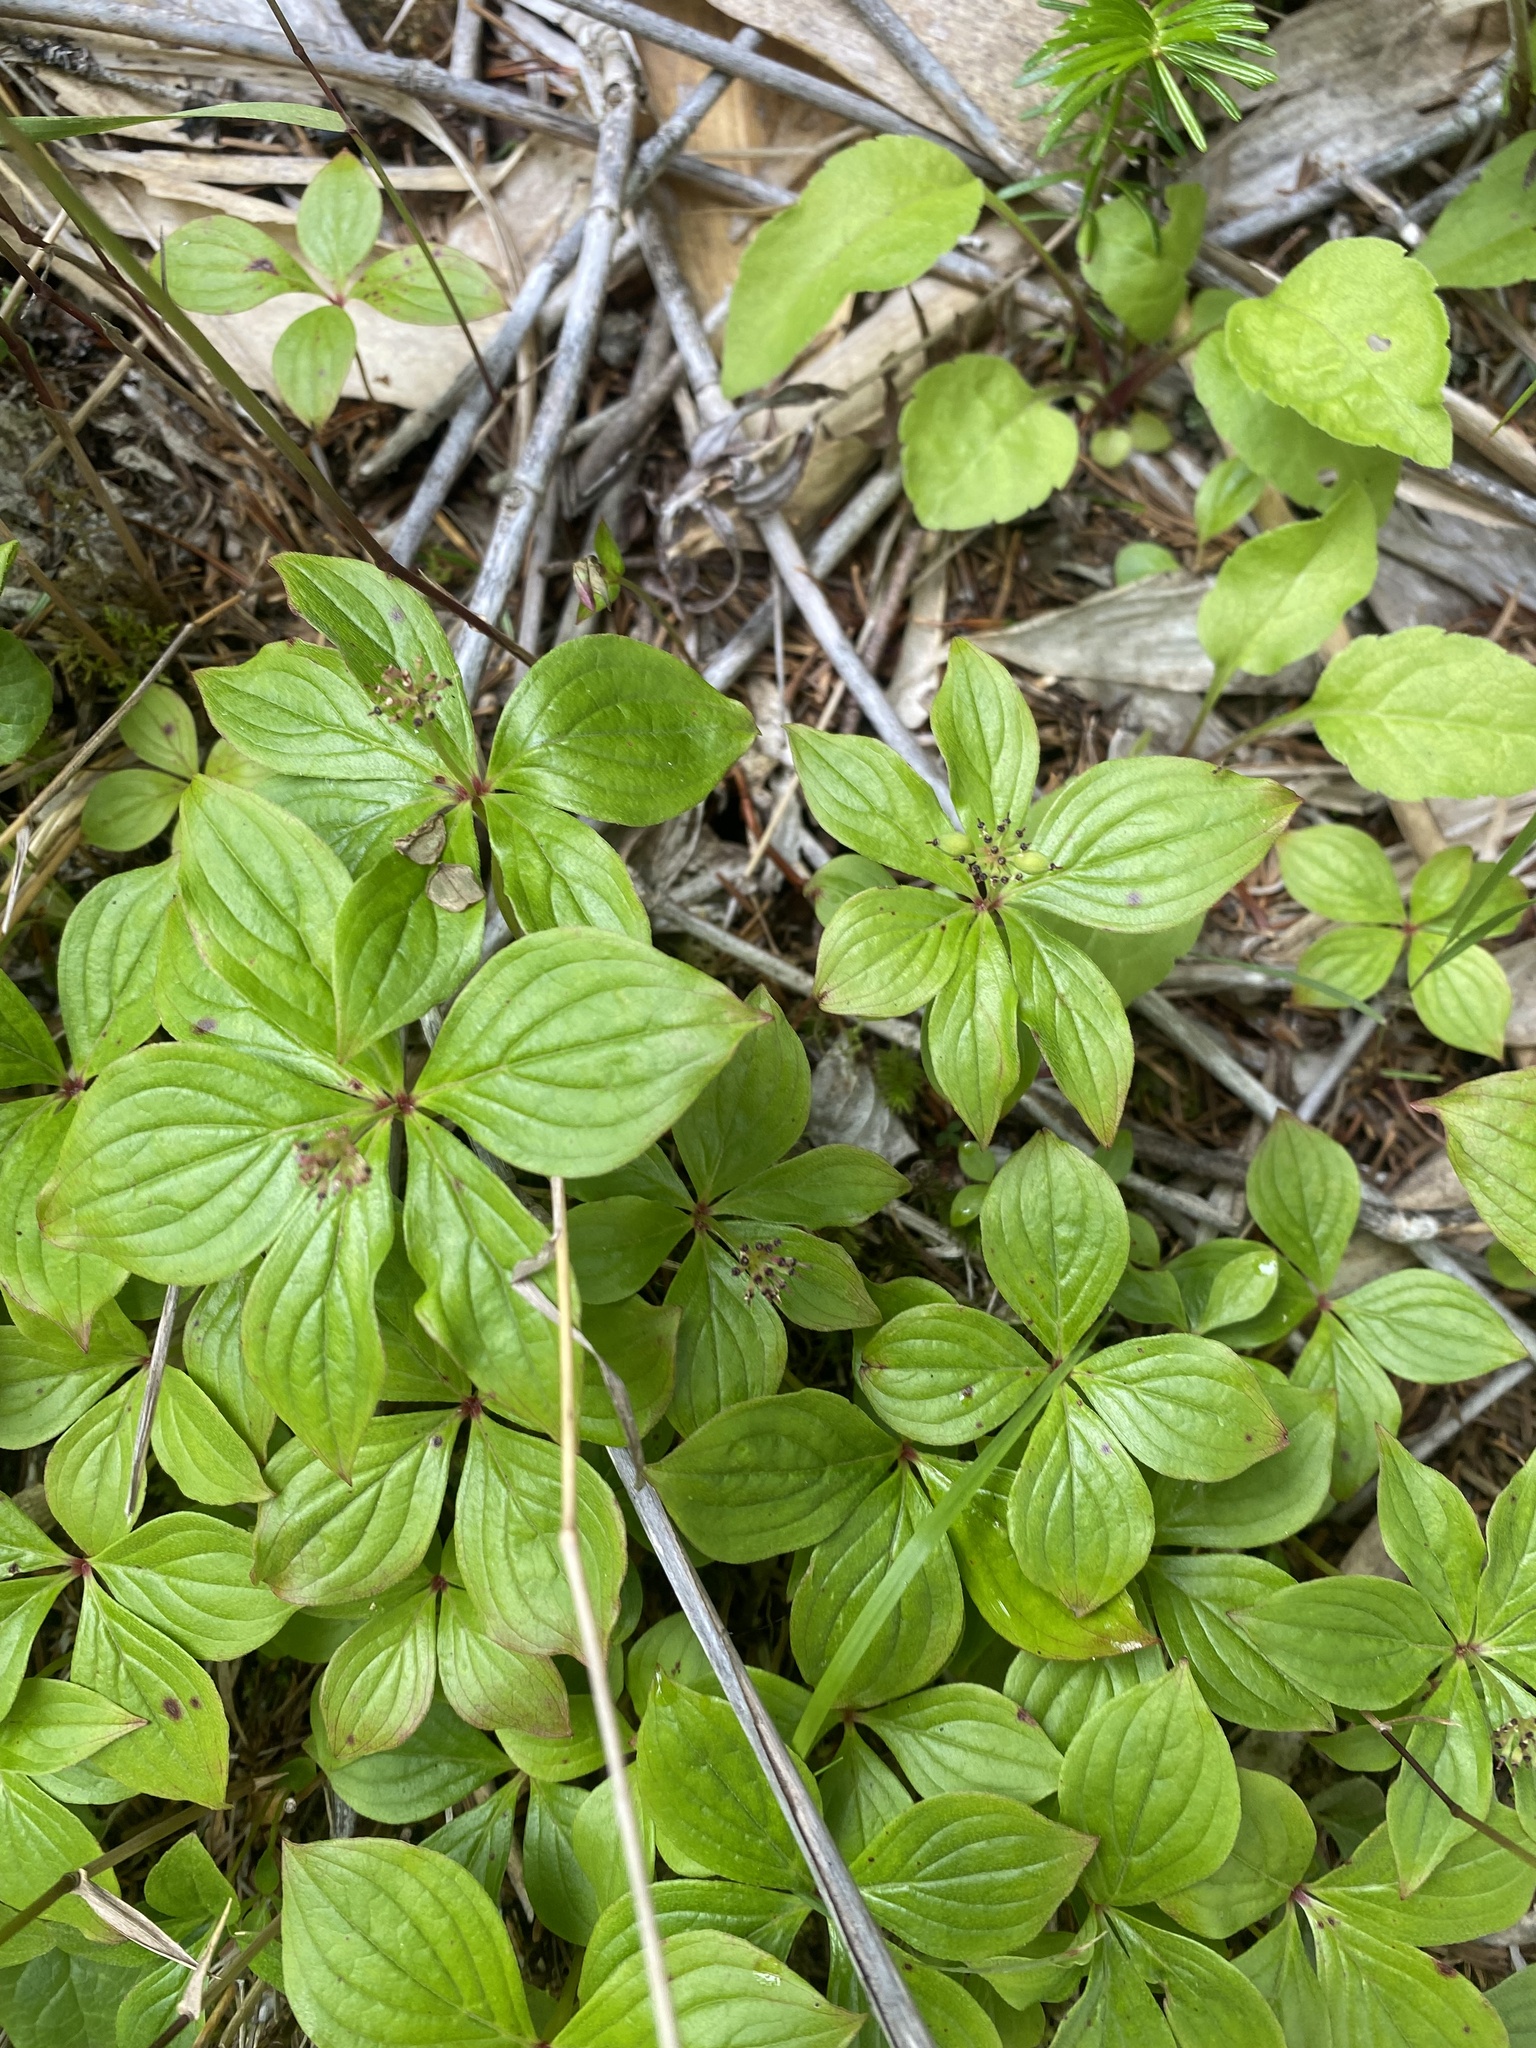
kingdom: Plantae
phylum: Tracheophyta
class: Magnoliopsida
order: Cornales
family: Cornaceae
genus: Cornus
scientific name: Cornus canadensis
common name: Creeping dogwood
